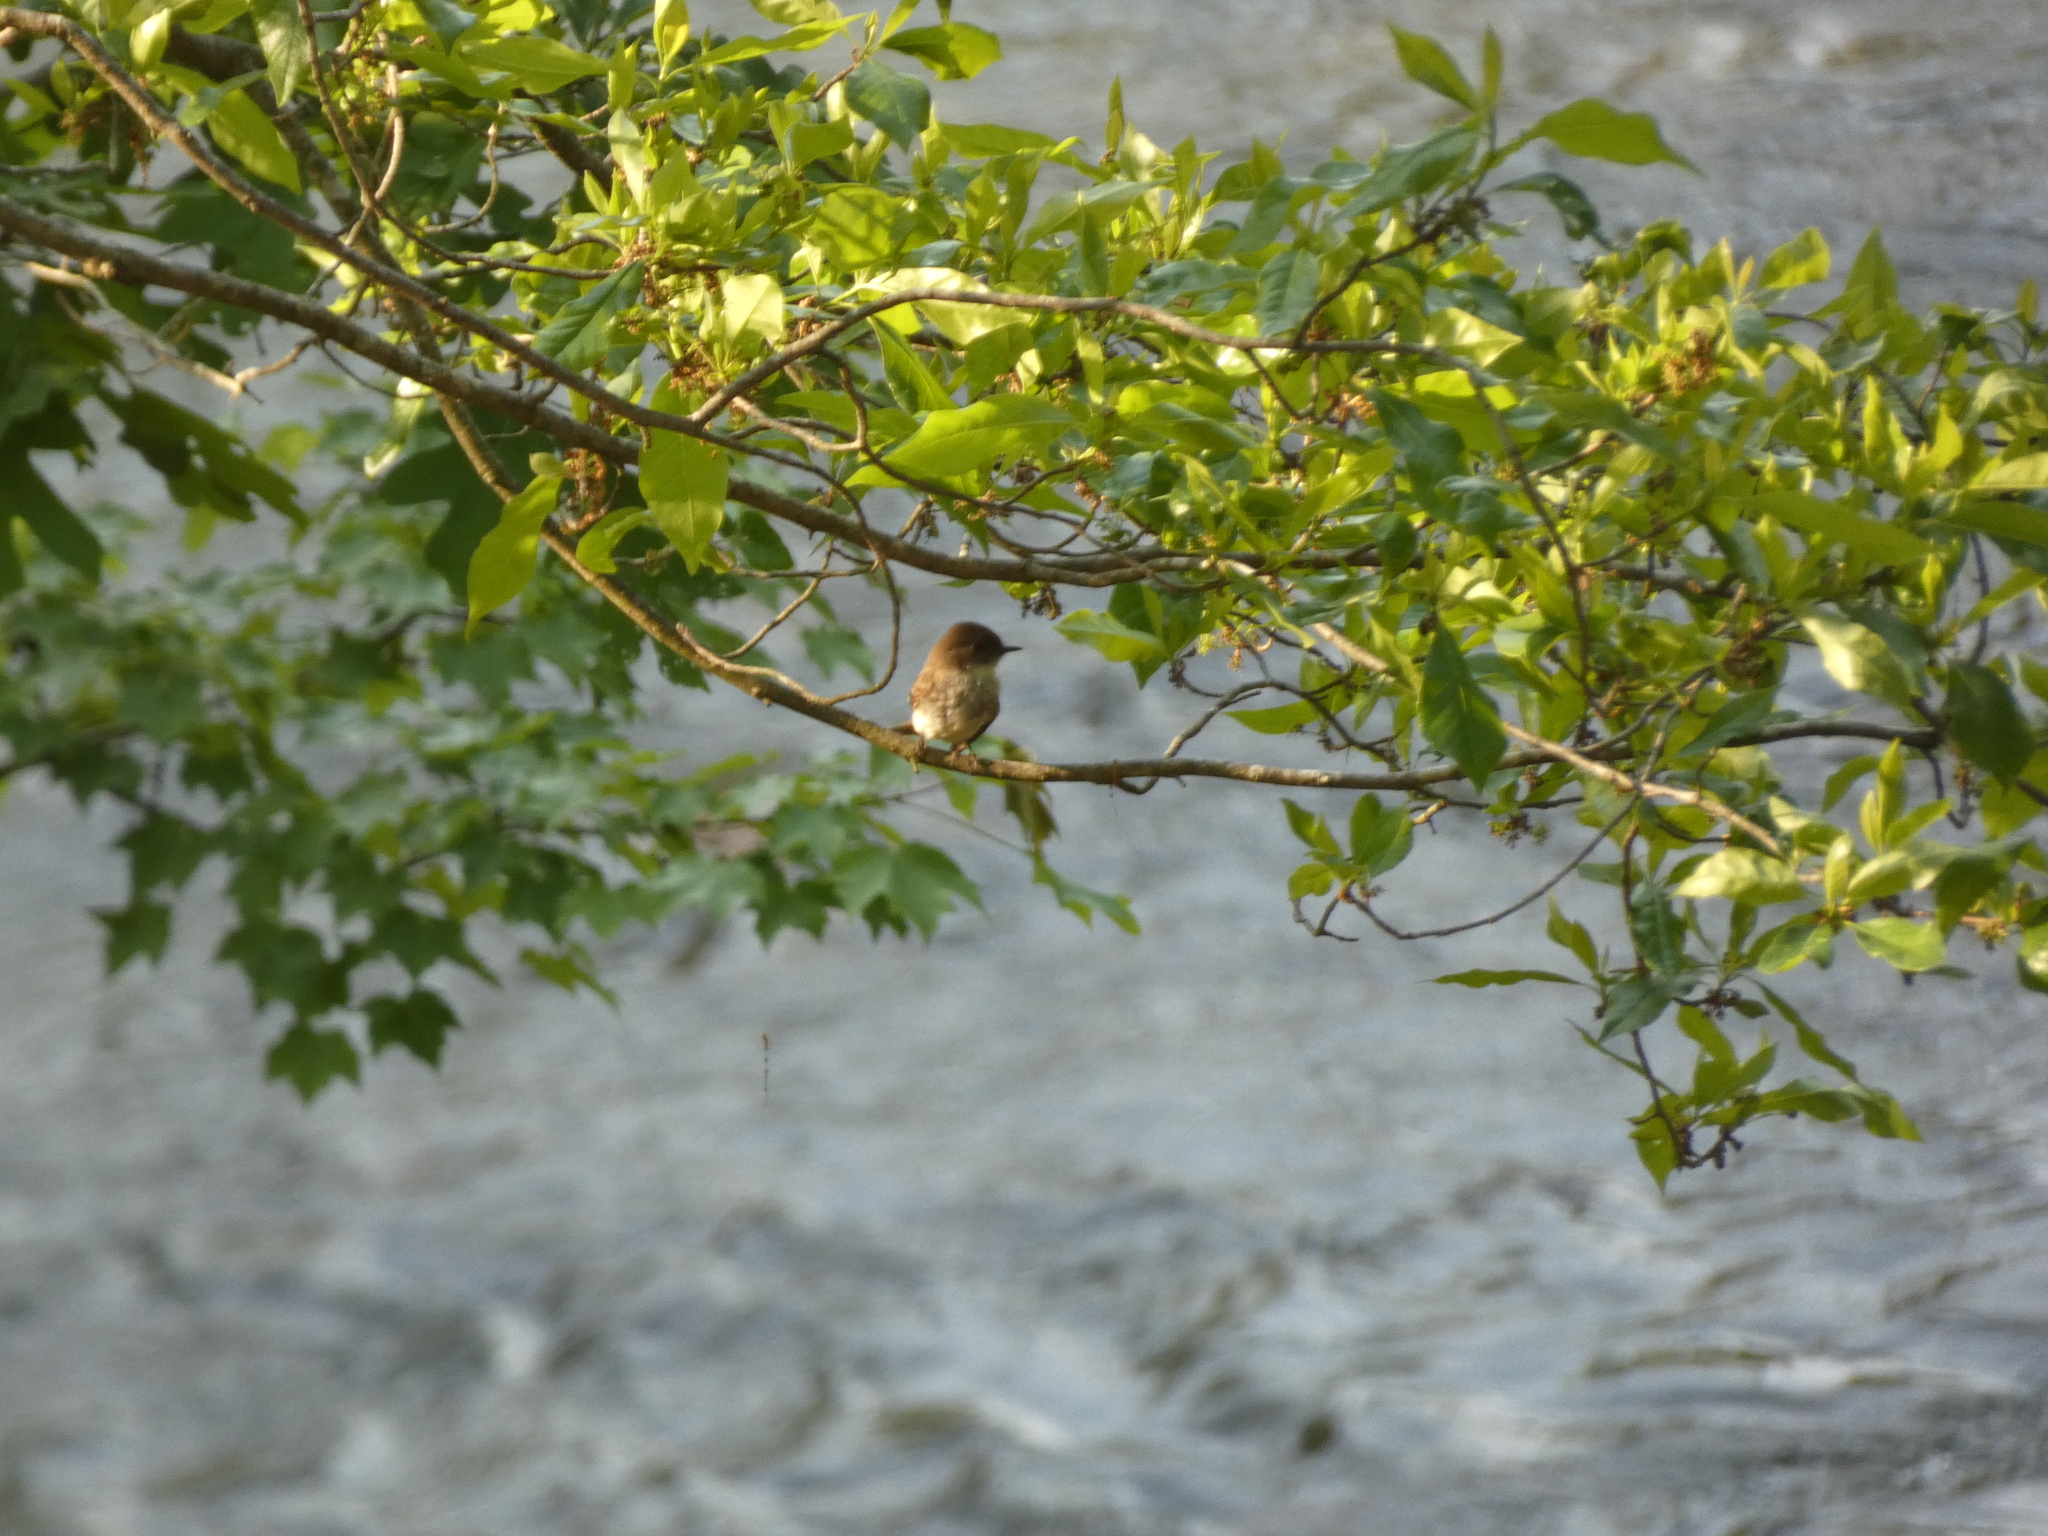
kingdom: Animalia
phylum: Chordata
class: Aves
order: Passeriformes
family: Tyrannidae
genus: Sayornis
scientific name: Sayornis phoebe
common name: Eastern phoebe
